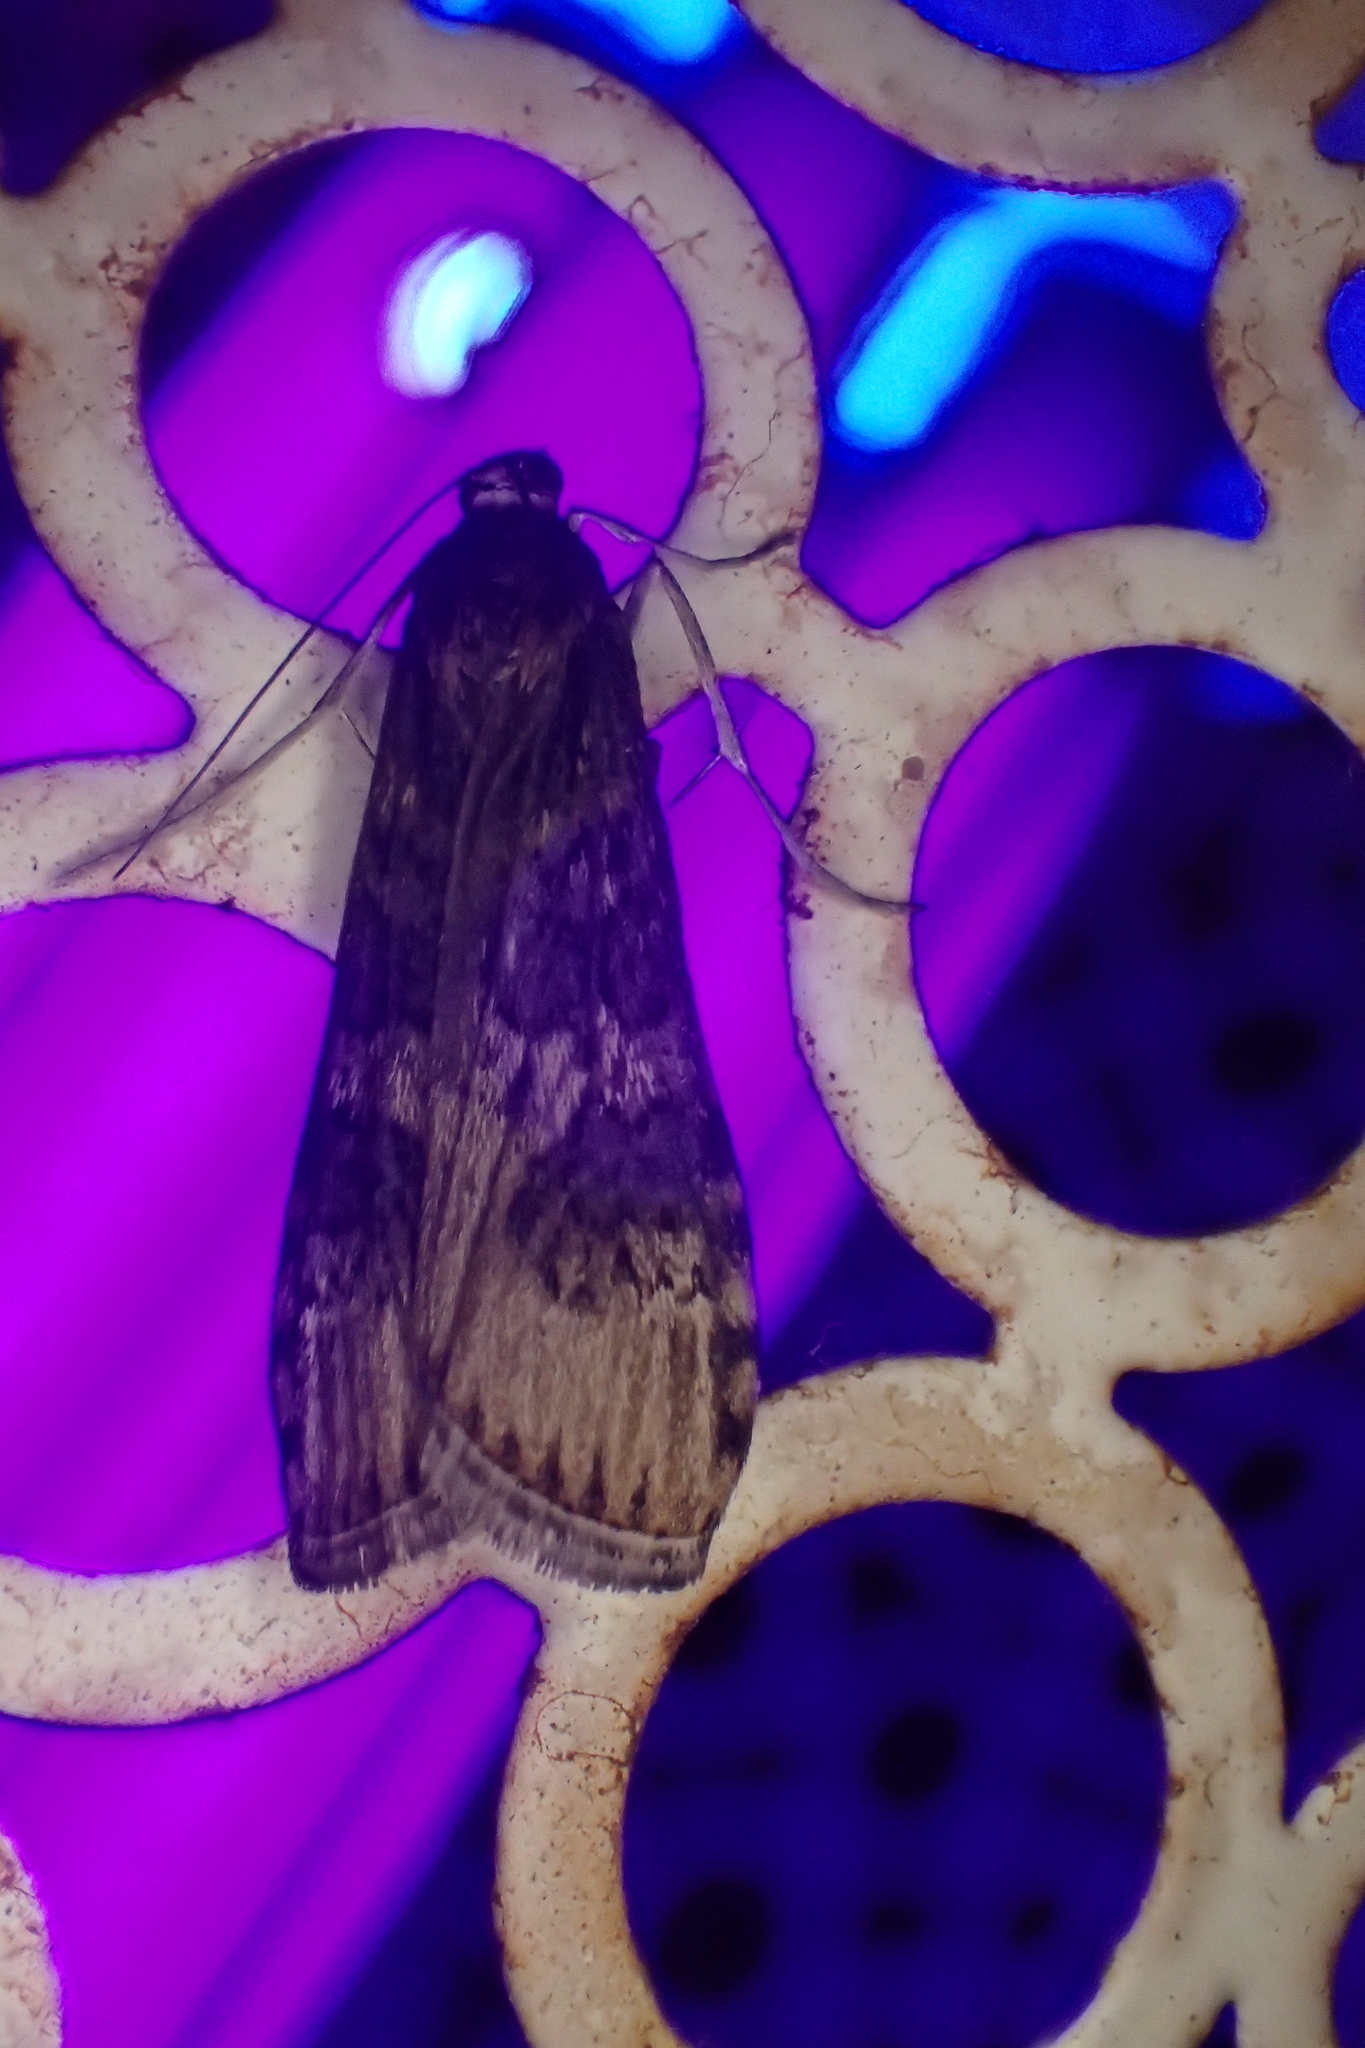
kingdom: Animalia
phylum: Arthropoda
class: Insecta
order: Lepidoptera
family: Crambidae
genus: Nomophila
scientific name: Nomophila noctuella
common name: Rush veneer
